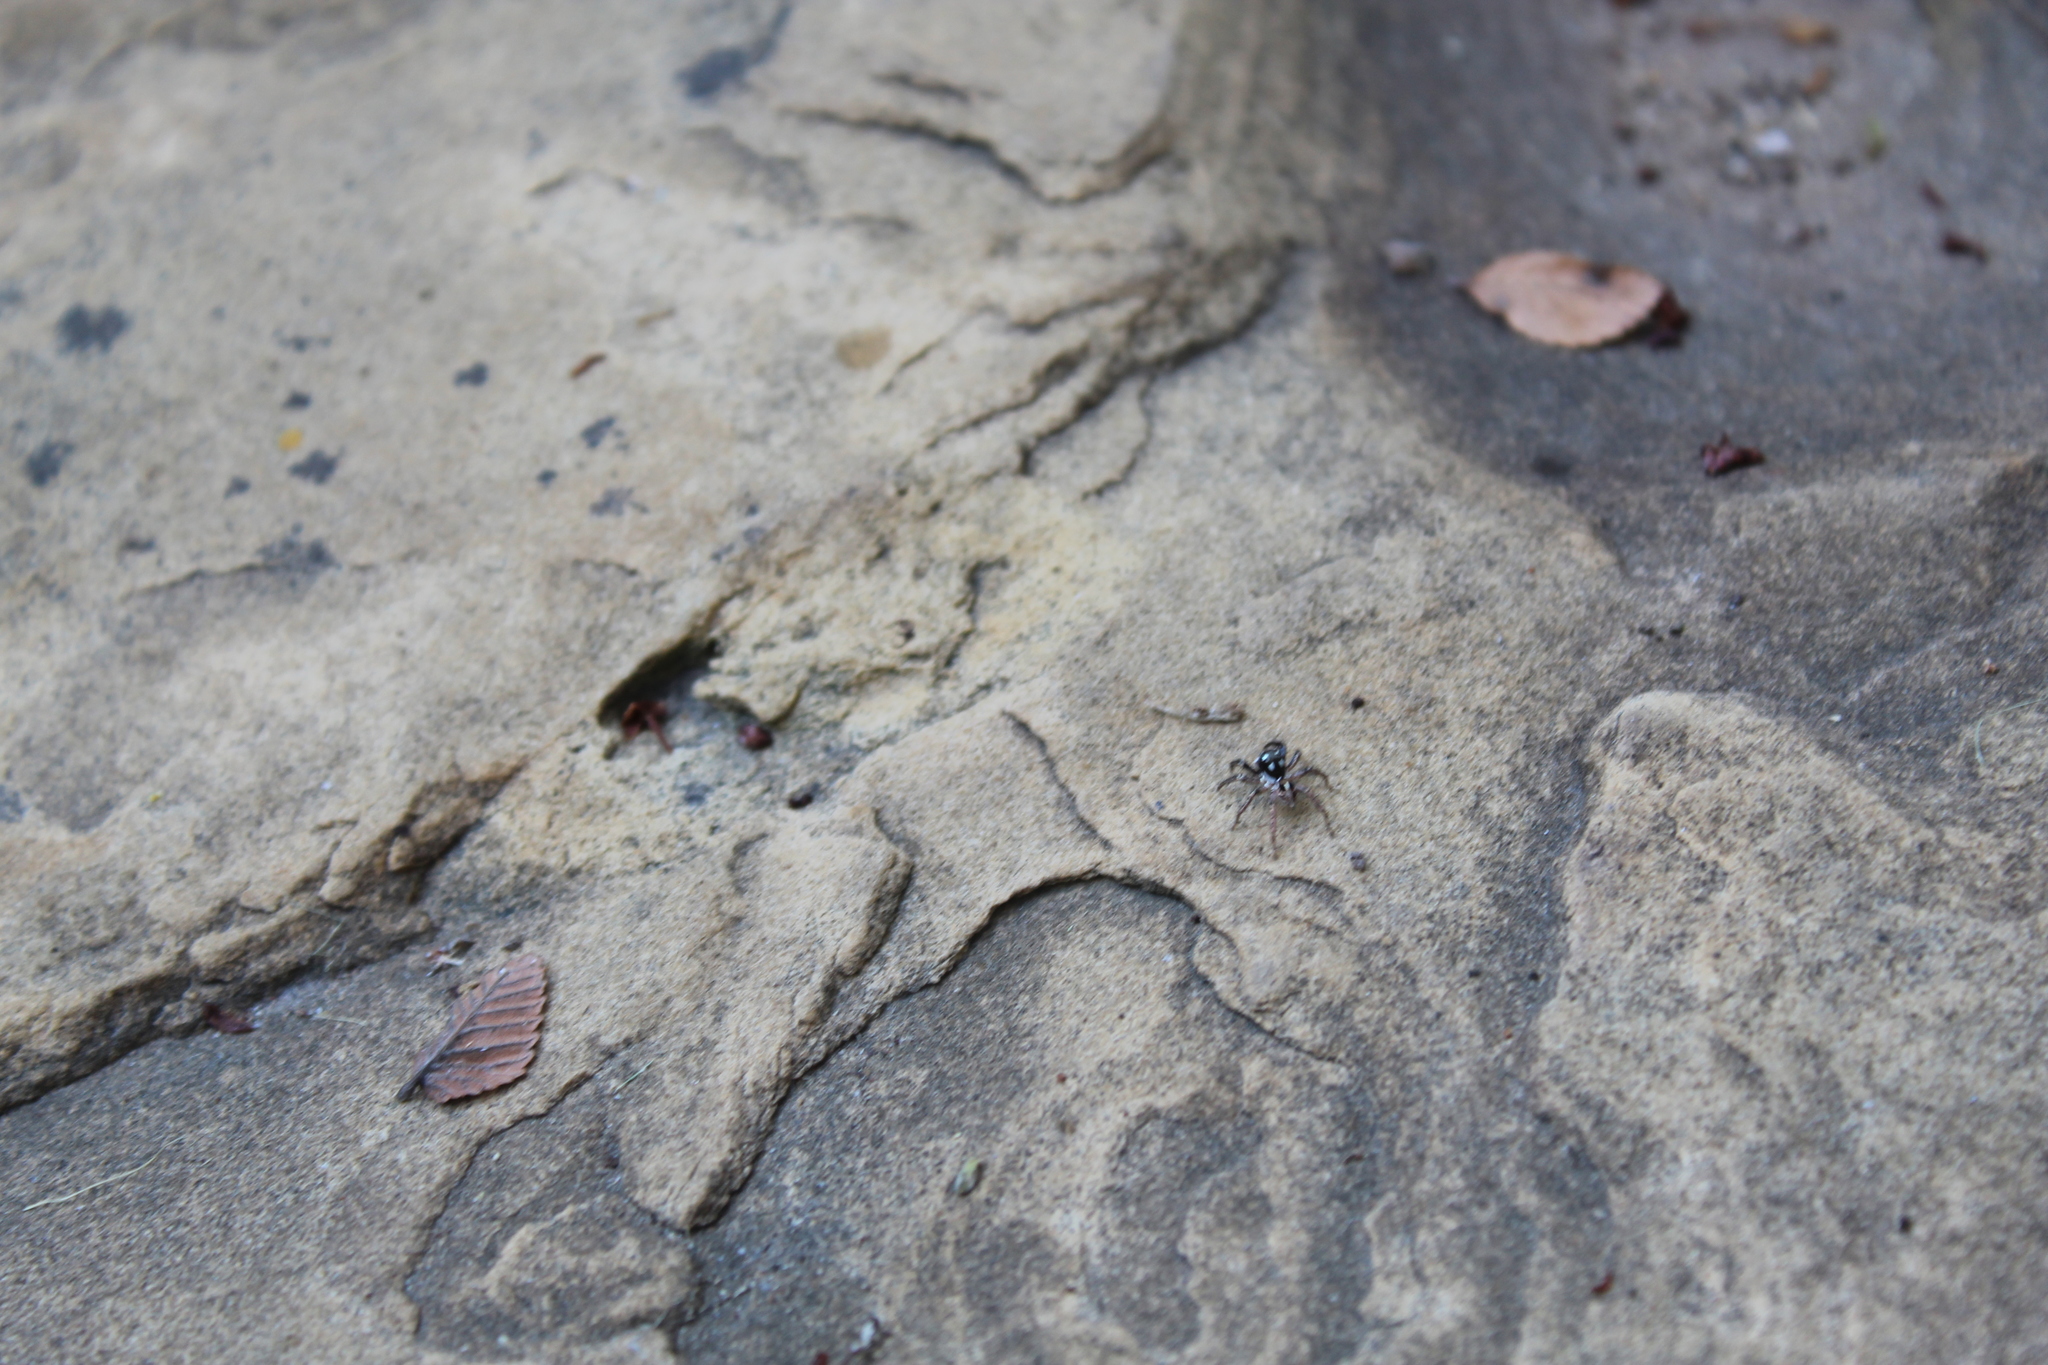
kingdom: Animalia
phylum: Arthropoda
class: Arachnida
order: Araneae
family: Salticidae
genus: Anasaitis
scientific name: Anasaitis canosa
